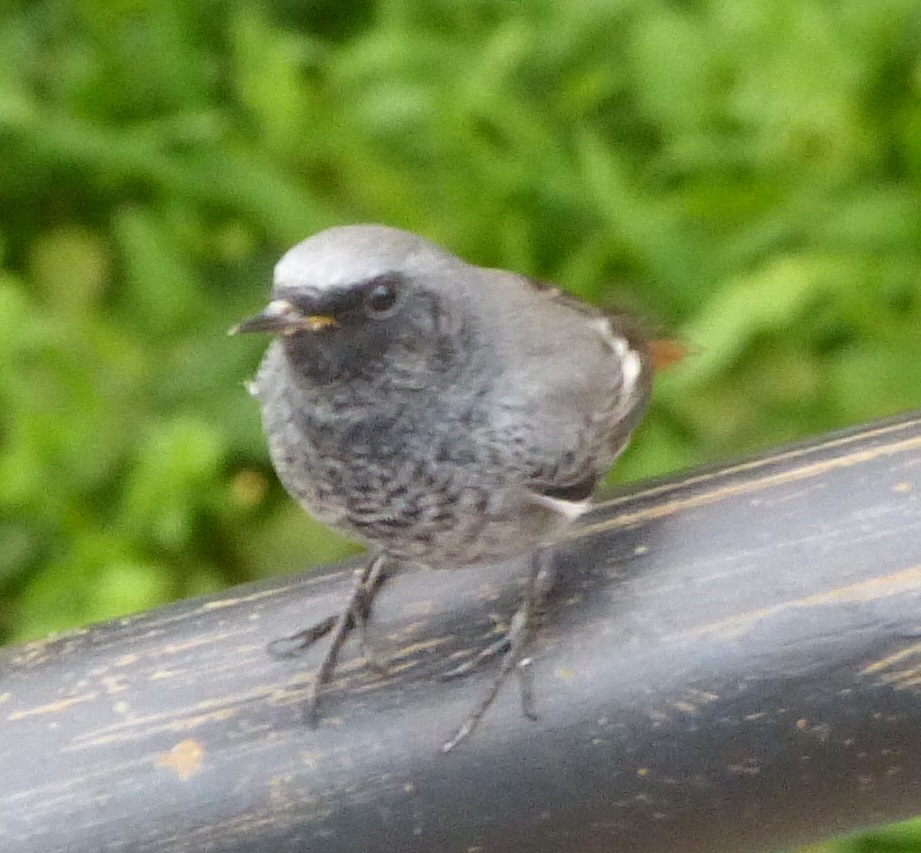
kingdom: Animalia
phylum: Chordata
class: Aves
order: Passeriformes
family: Muscicapidae
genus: Phoenicurus
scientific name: Phoenicurus ochruros
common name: Black redstart
